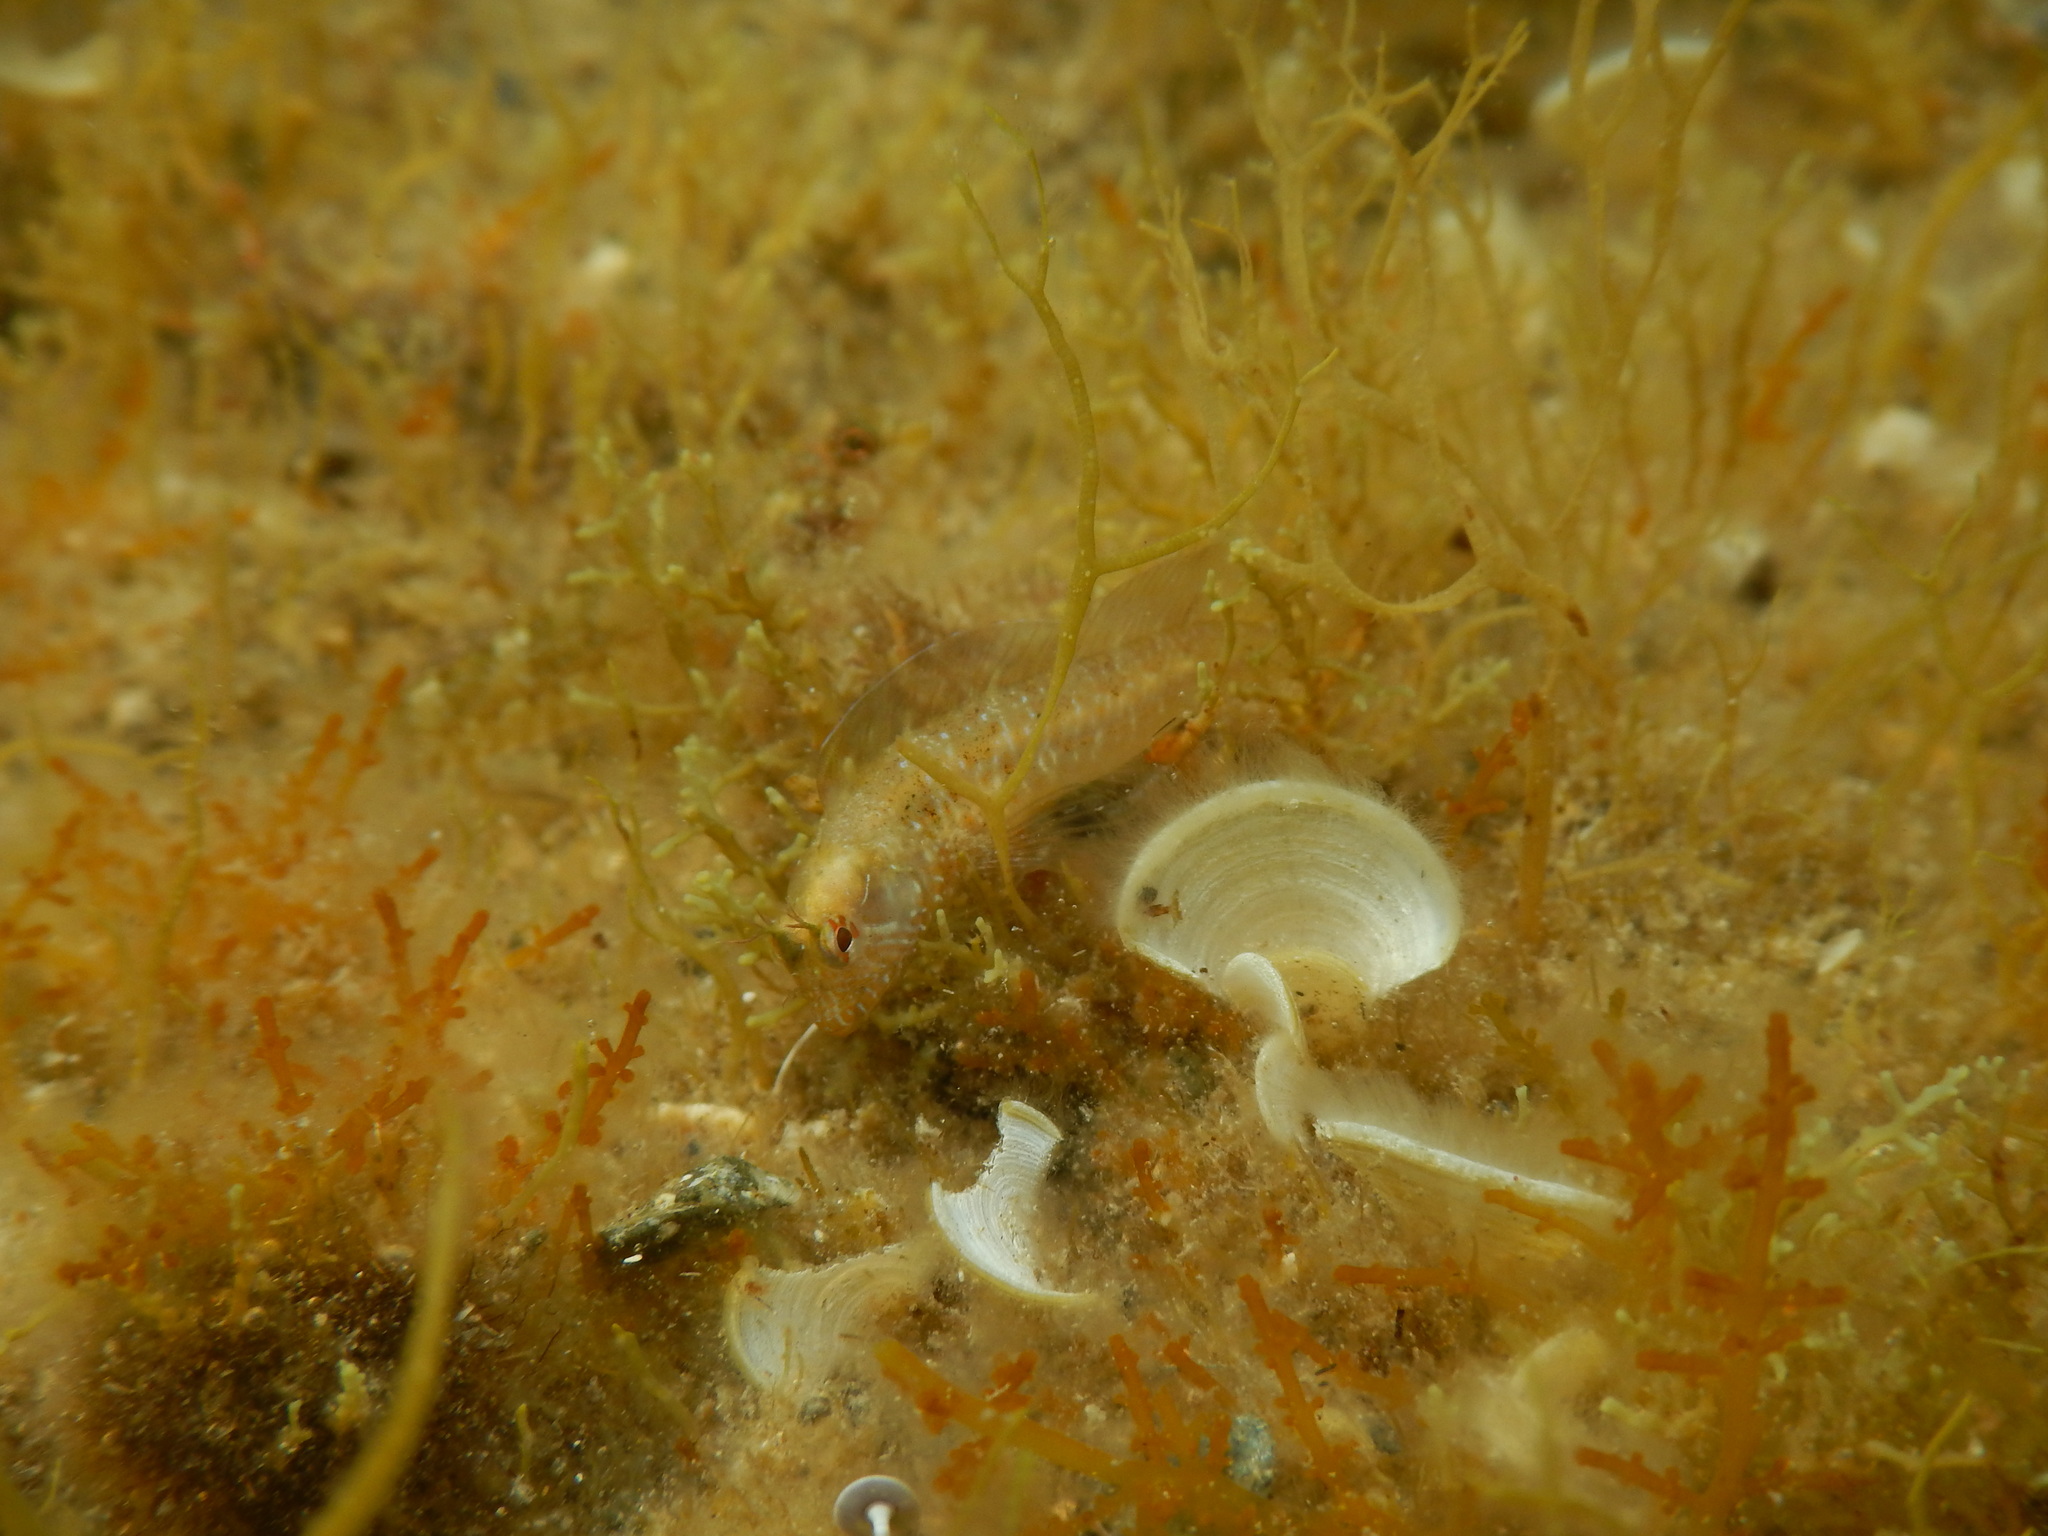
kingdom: Animalia
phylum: Chordata
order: Perciformes
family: Blenniidae
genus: Parablennius
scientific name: Parablennius incognitus
